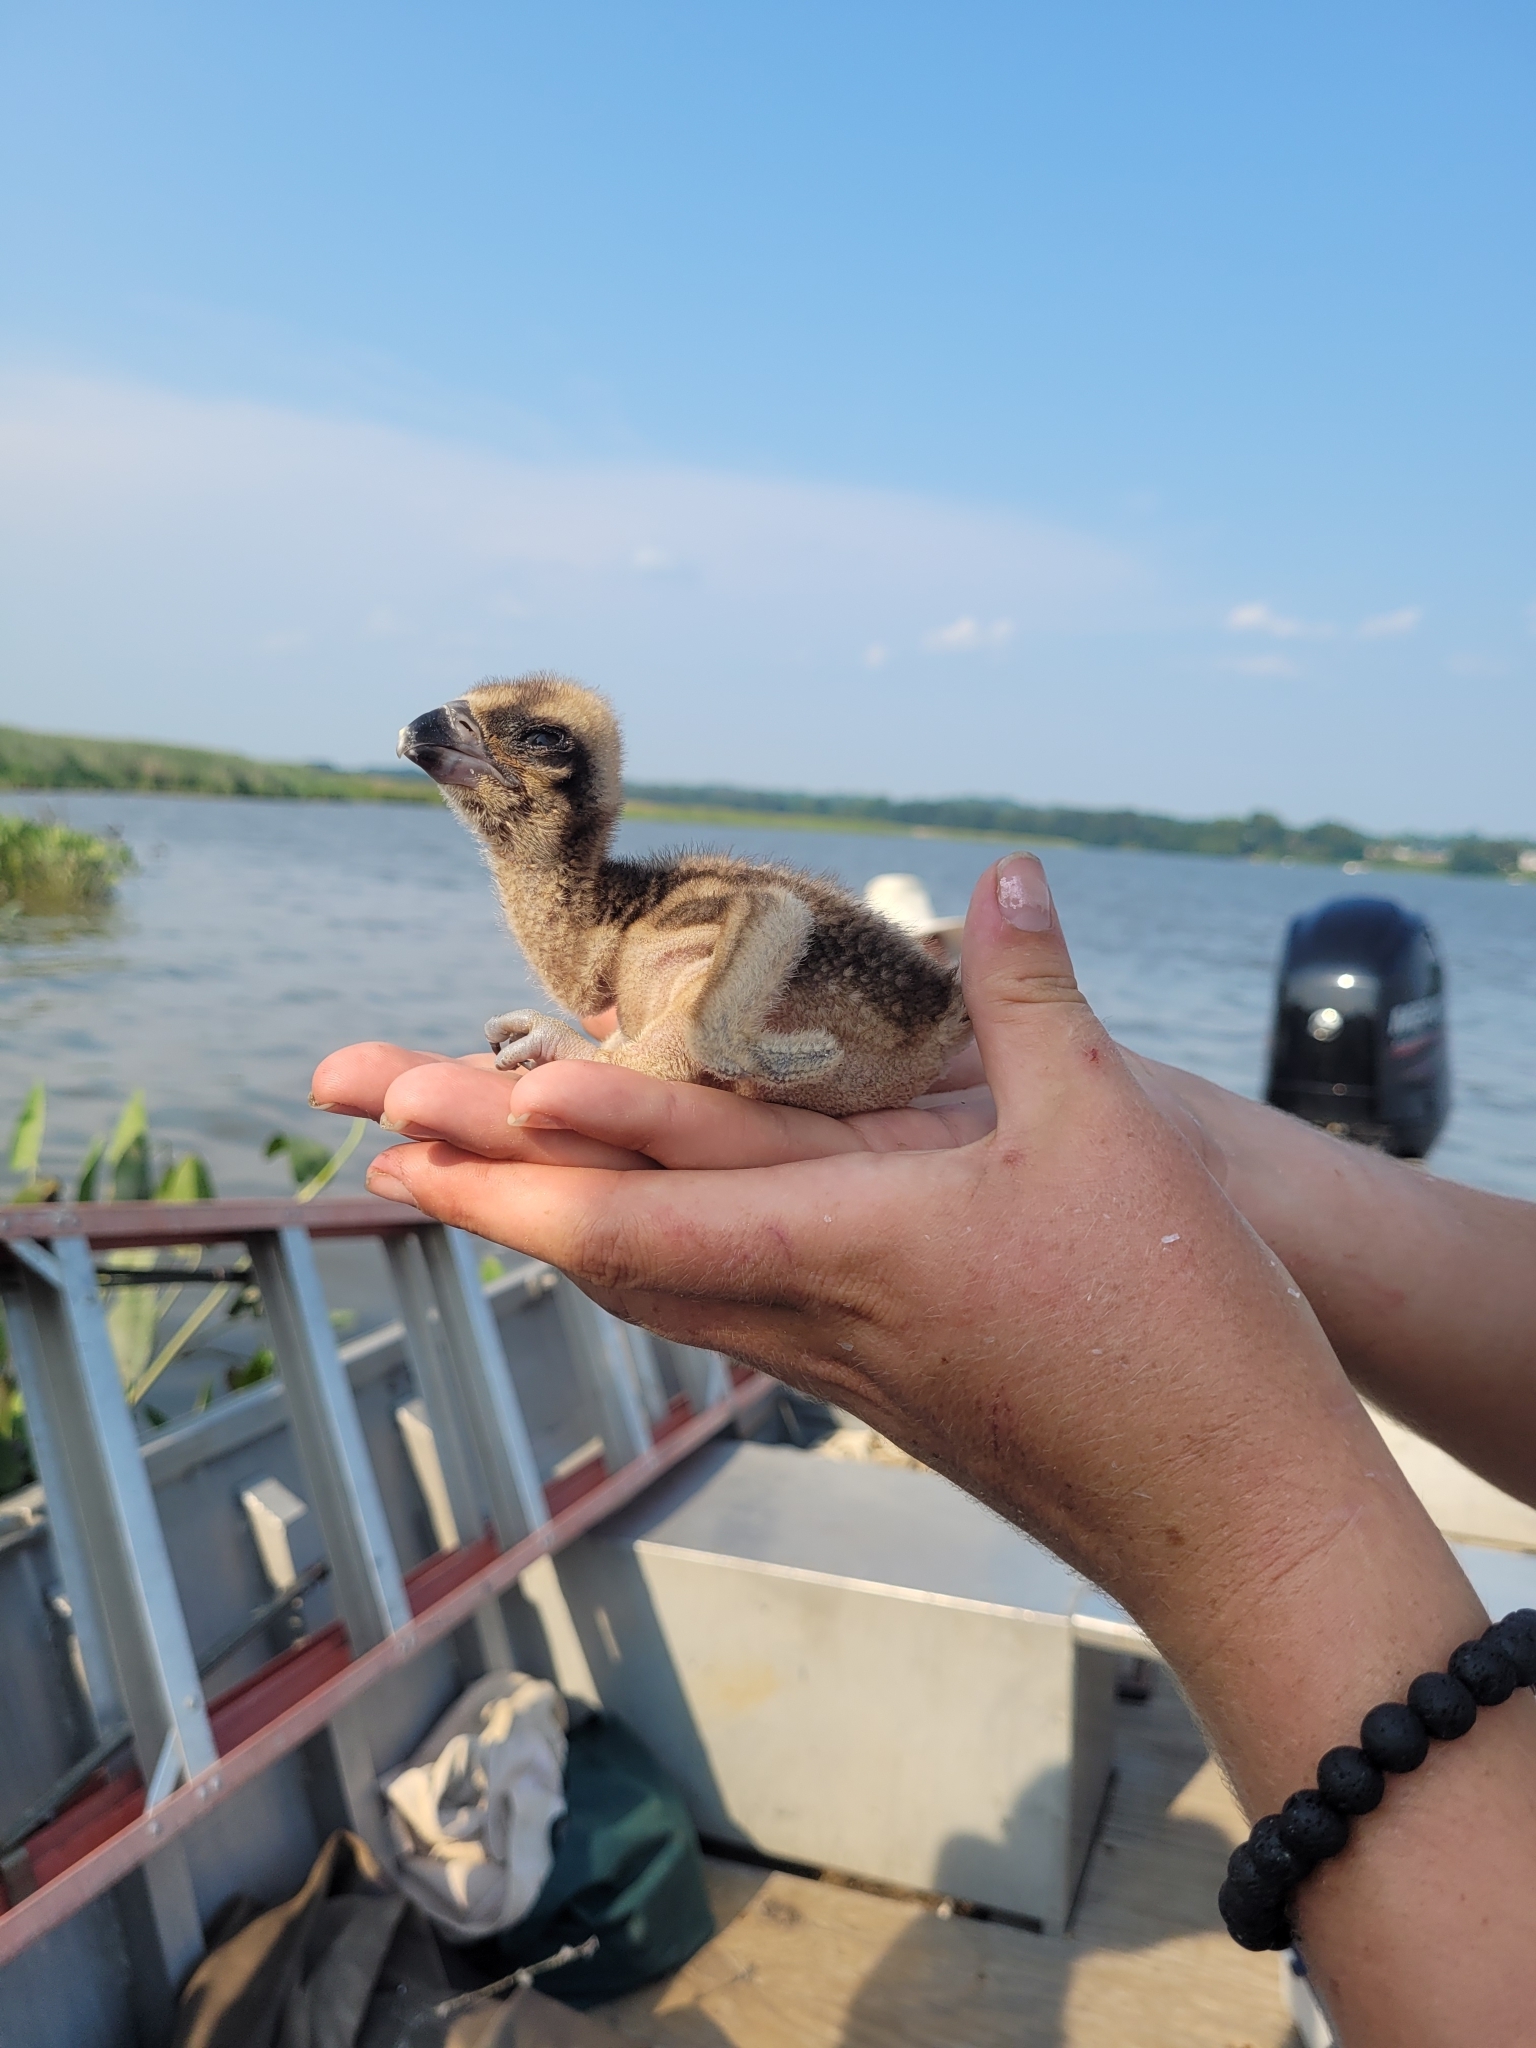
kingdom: Animalia
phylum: Chordata
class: Aves
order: Accipitriformes
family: Pandionidae
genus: Pandion
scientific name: Pandion haliaetus
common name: Osprey
